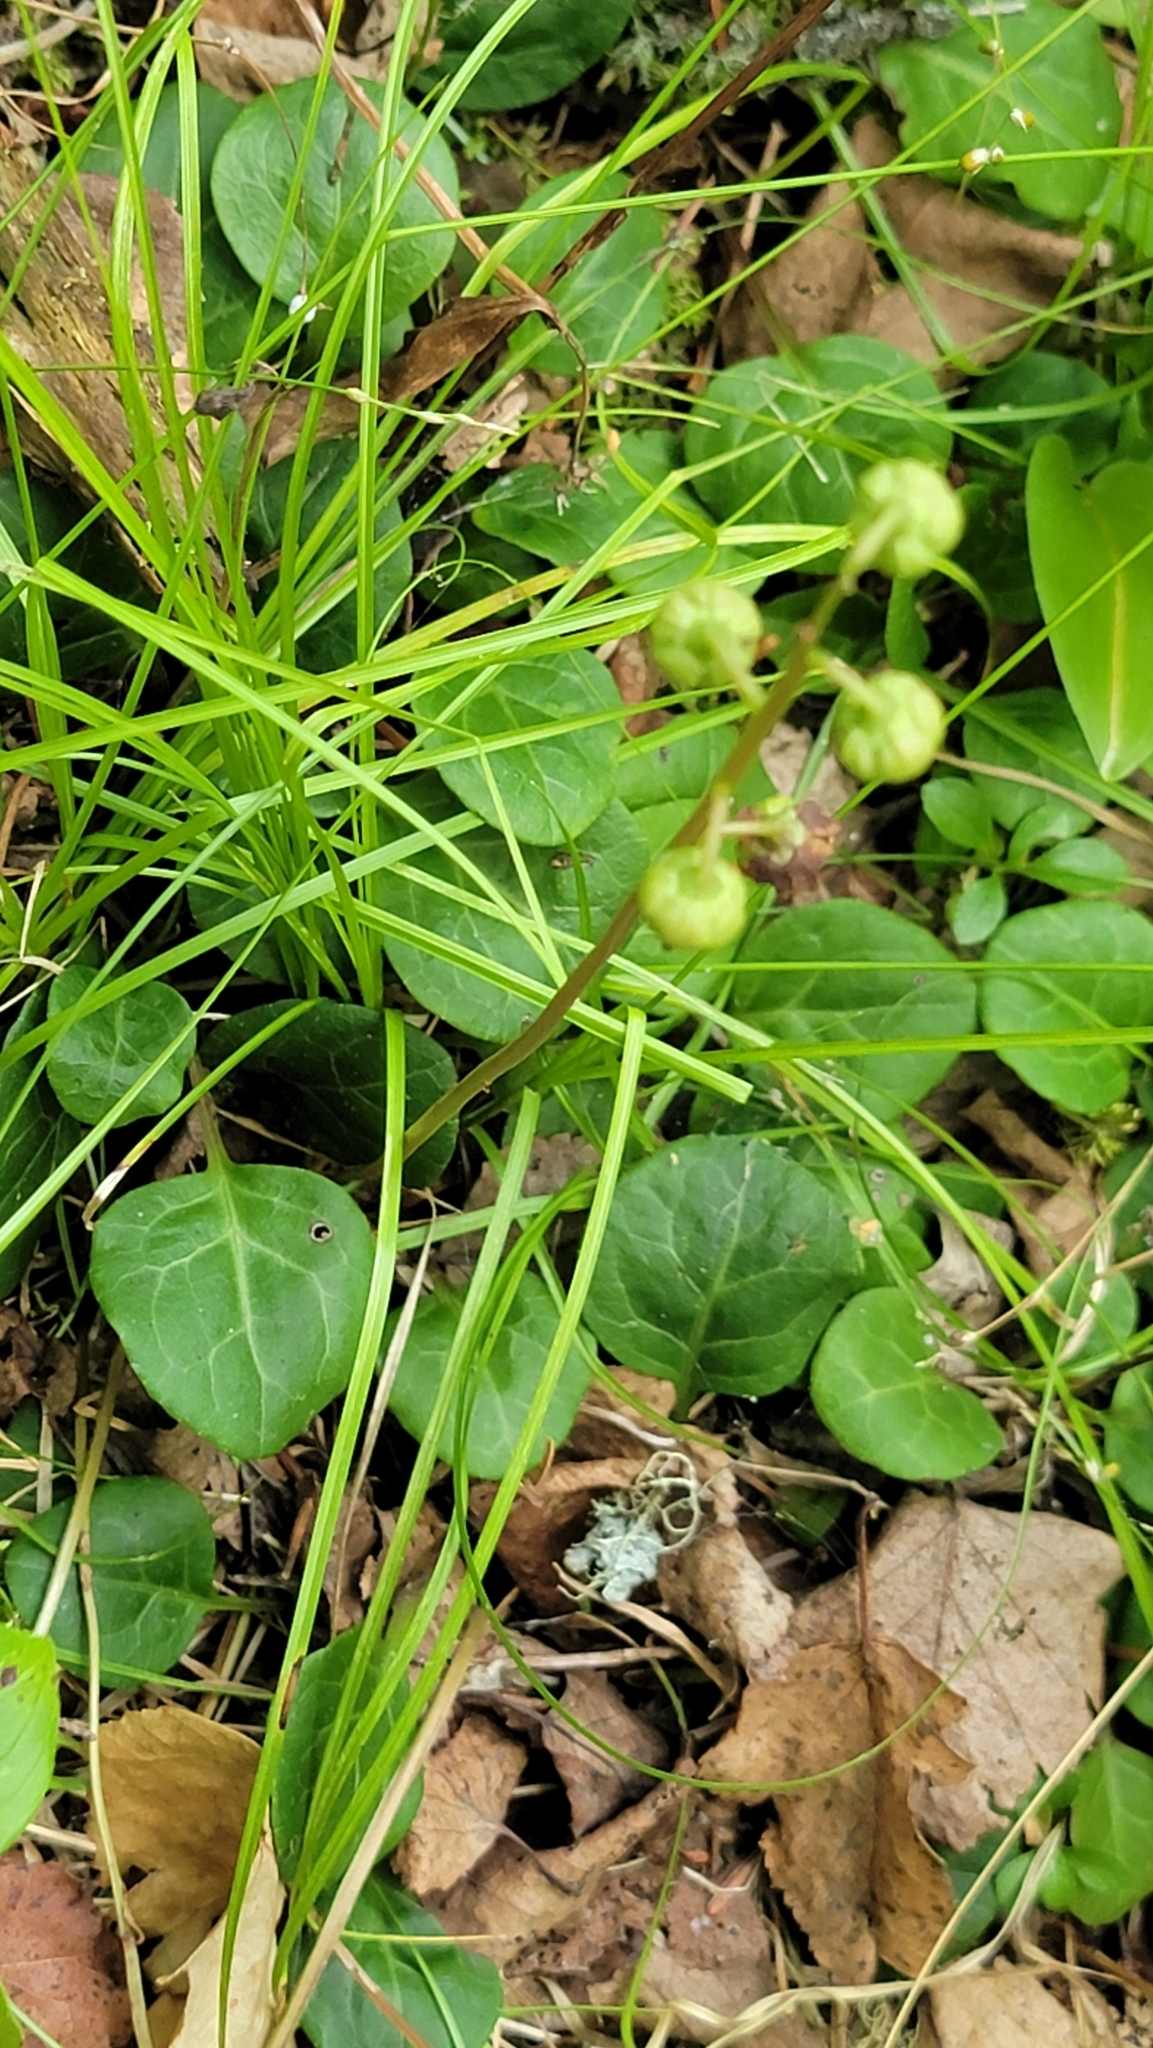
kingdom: Plantae
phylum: Tracheophyta
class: Magnoliopsida
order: Ericales
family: Ericaceae
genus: Pyrola
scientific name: Pyrola chlorantha
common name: Green wintergreen
